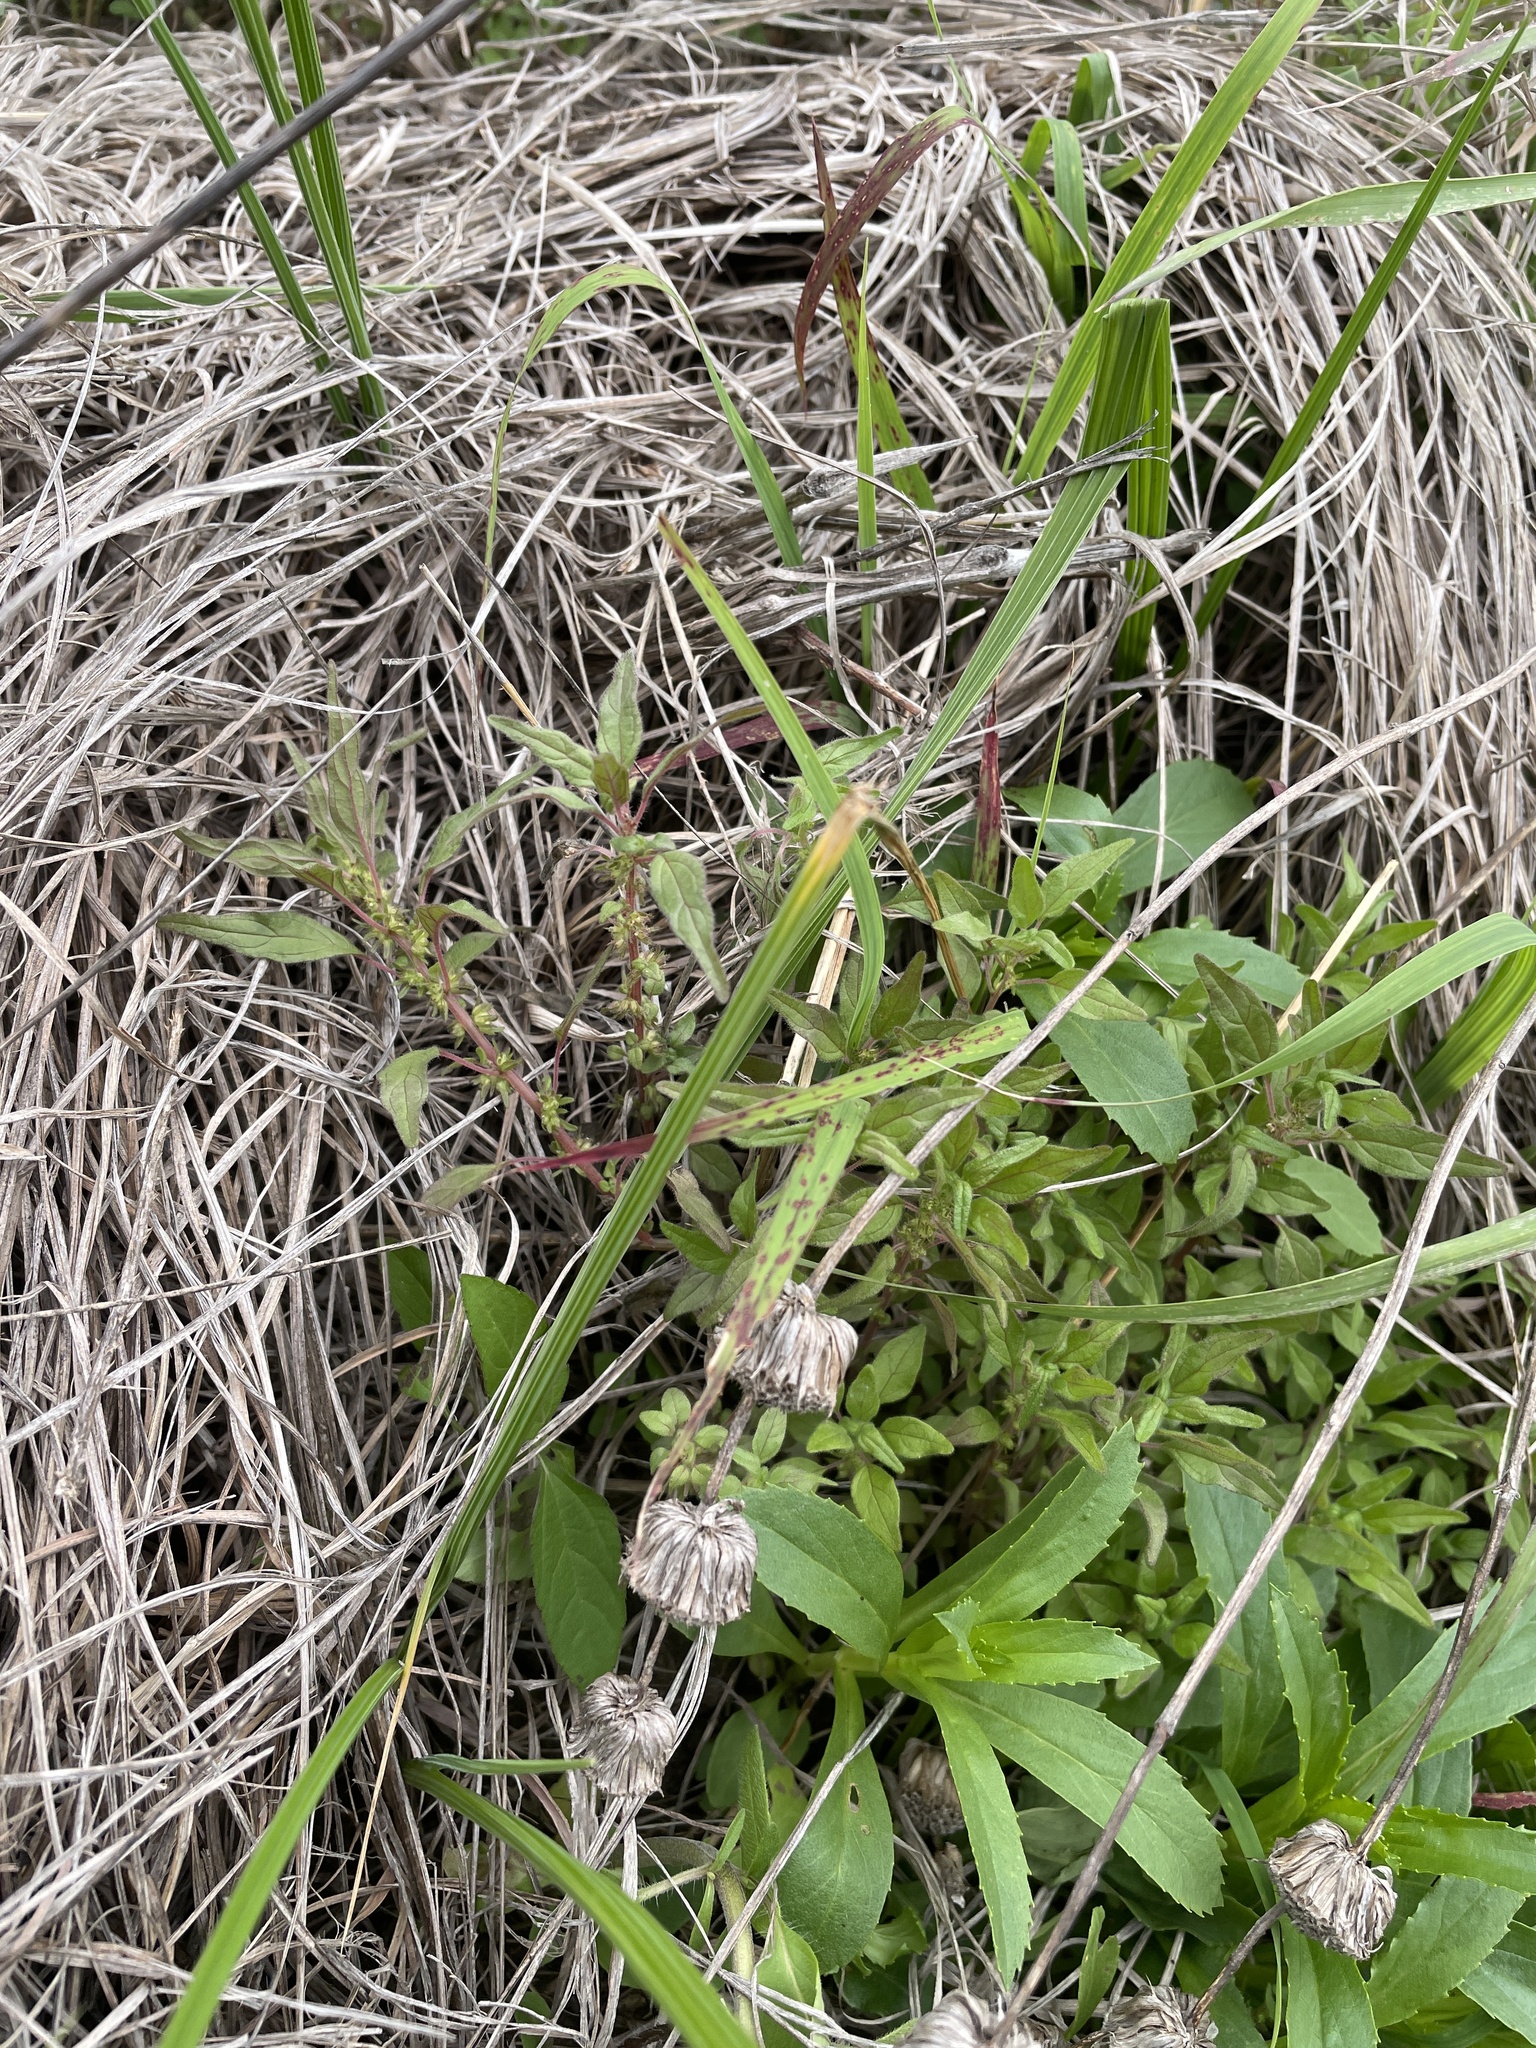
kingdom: Plantae
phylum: Tracheophyta
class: Magnoliopsida
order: Rosales
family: Urticaceae
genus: Parietaria
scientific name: Parietaria pensylvanica
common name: Pennsylvania pellitory
